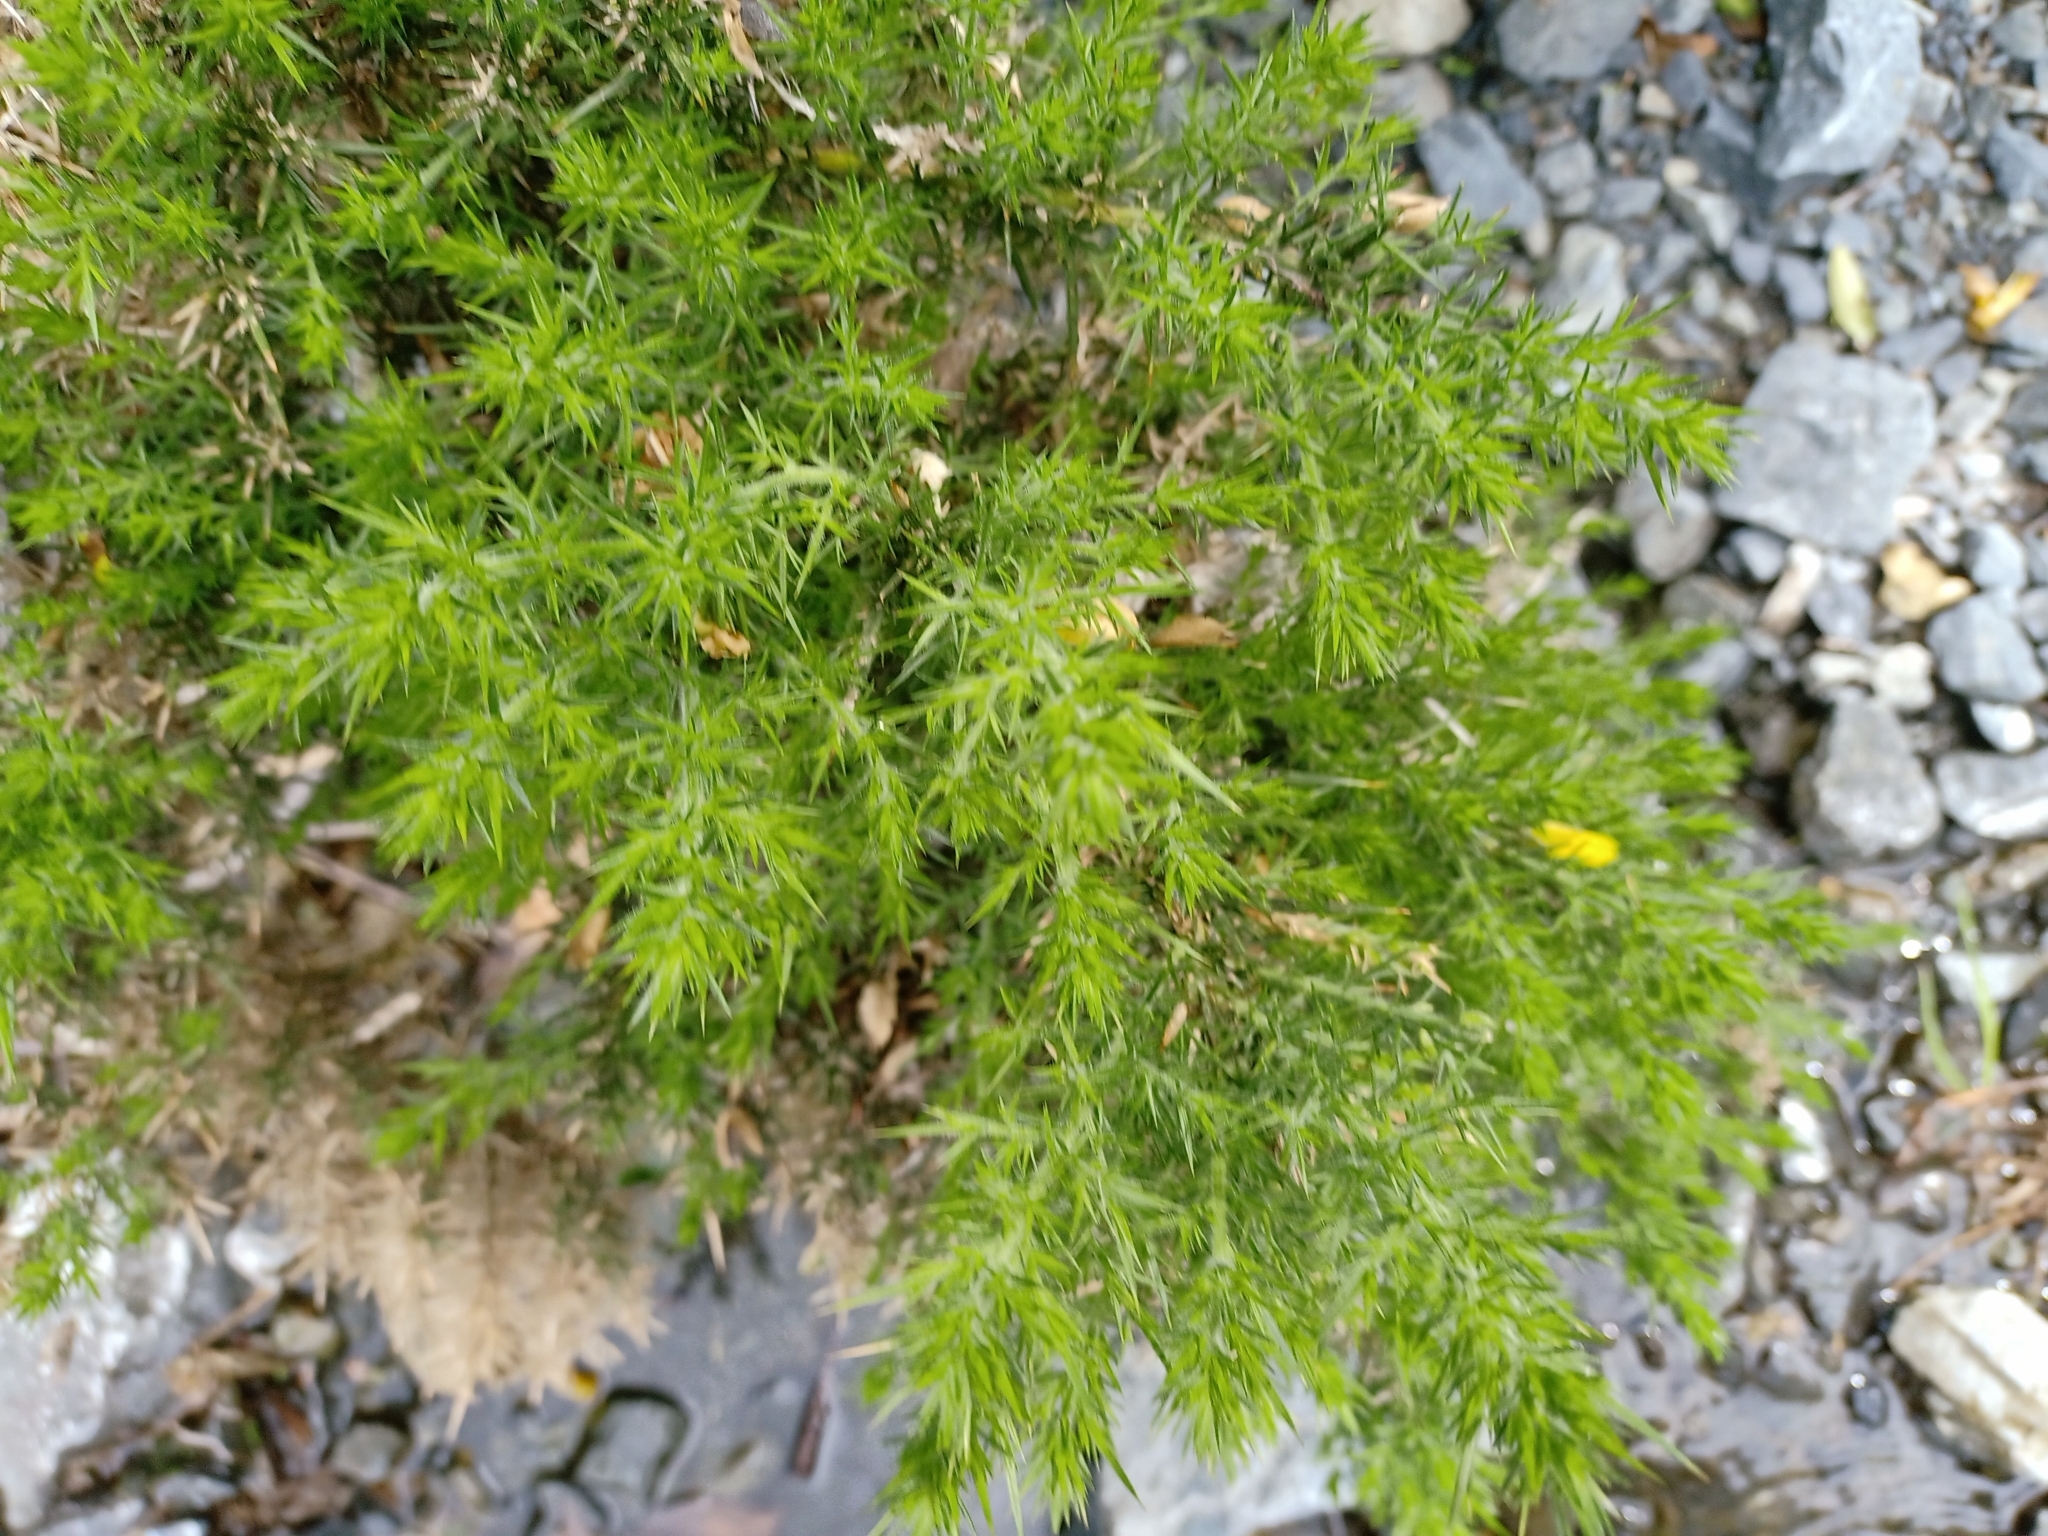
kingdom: Plantae
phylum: Tracheophyta
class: Magnoliopsida
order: Fabales
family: Fabaceae
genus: Ulex
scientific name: Ulex europaeus
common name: Common gorse
